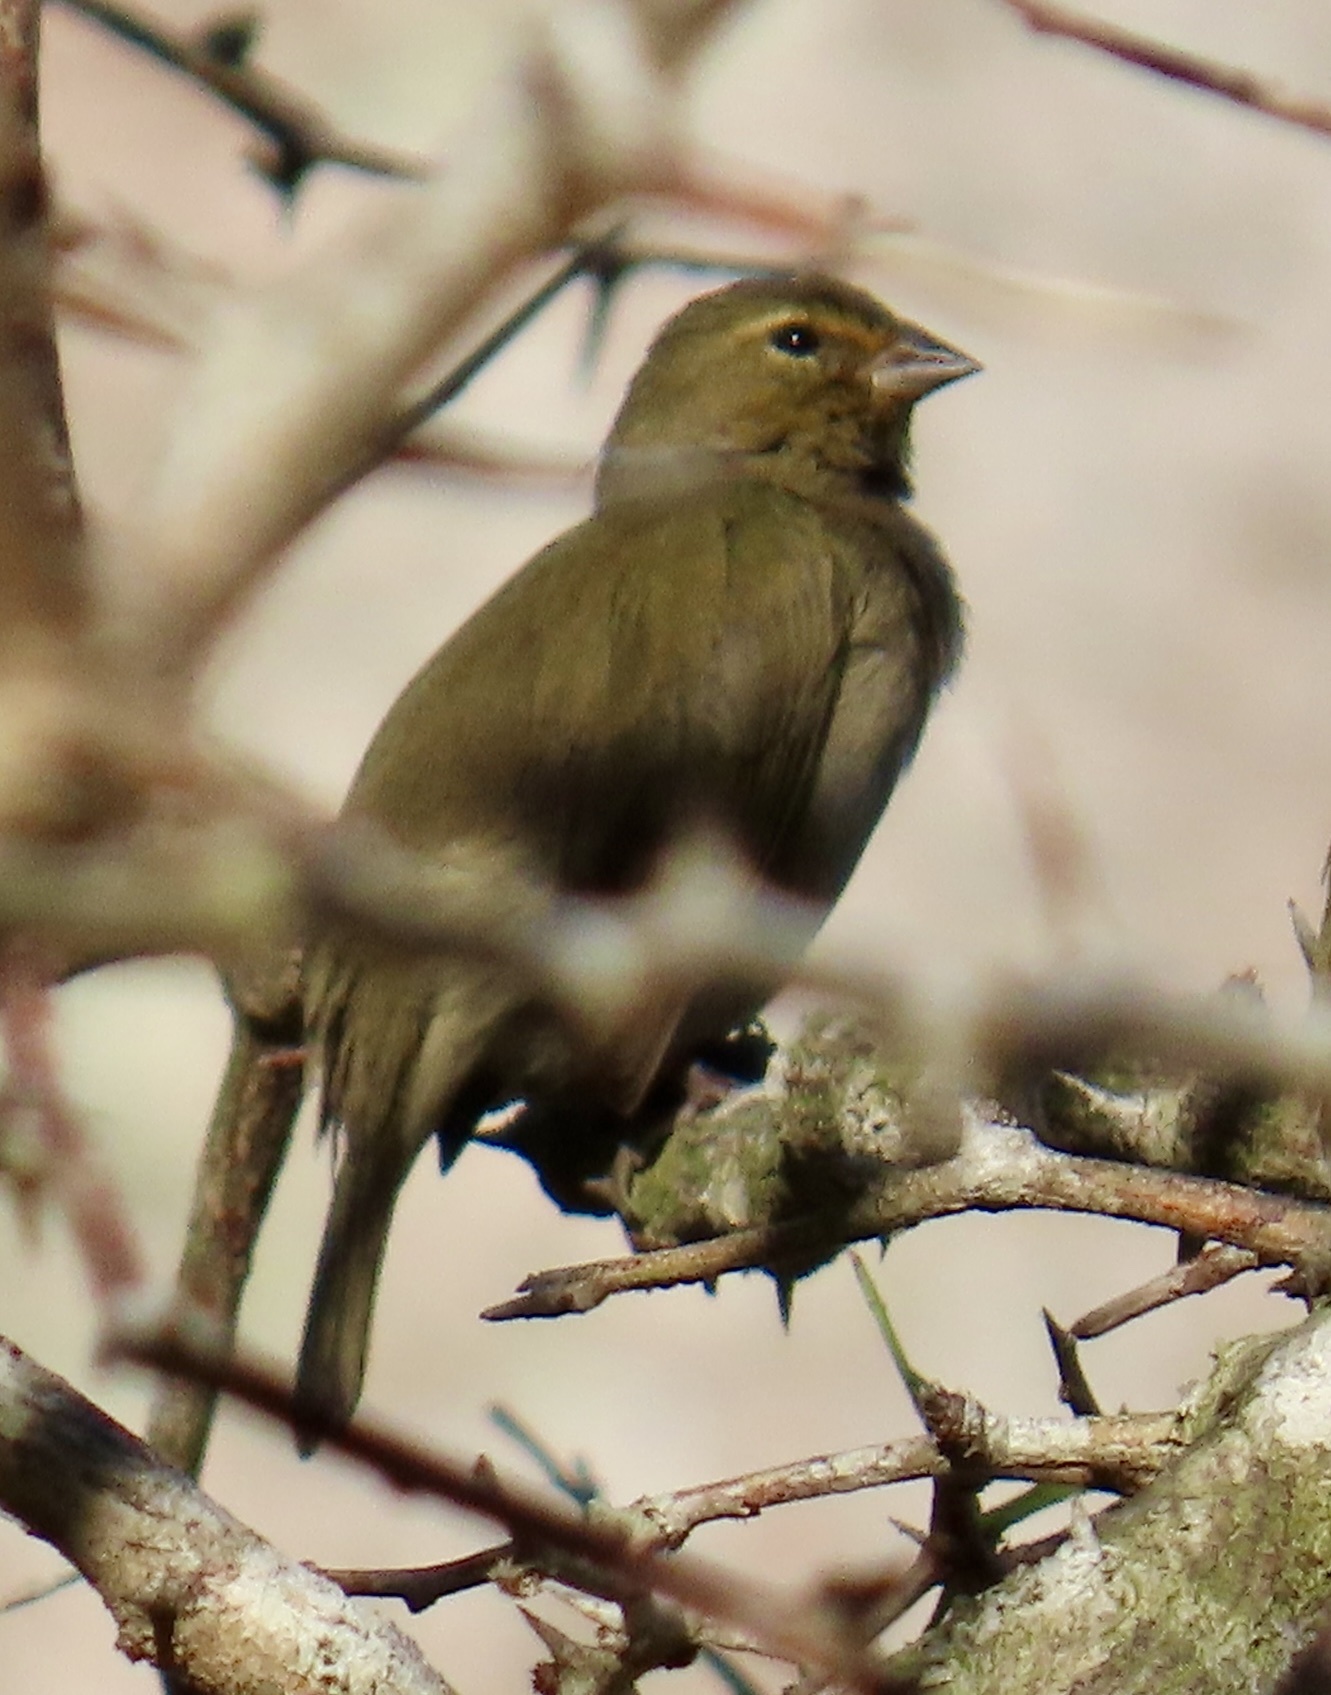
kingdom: Animalia
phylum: Chordata
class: Aves
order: Passeriformes
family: Thraupidae
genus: Tiaris
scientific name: Tiaris olivaceus
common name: Yellow-faced grassquit
